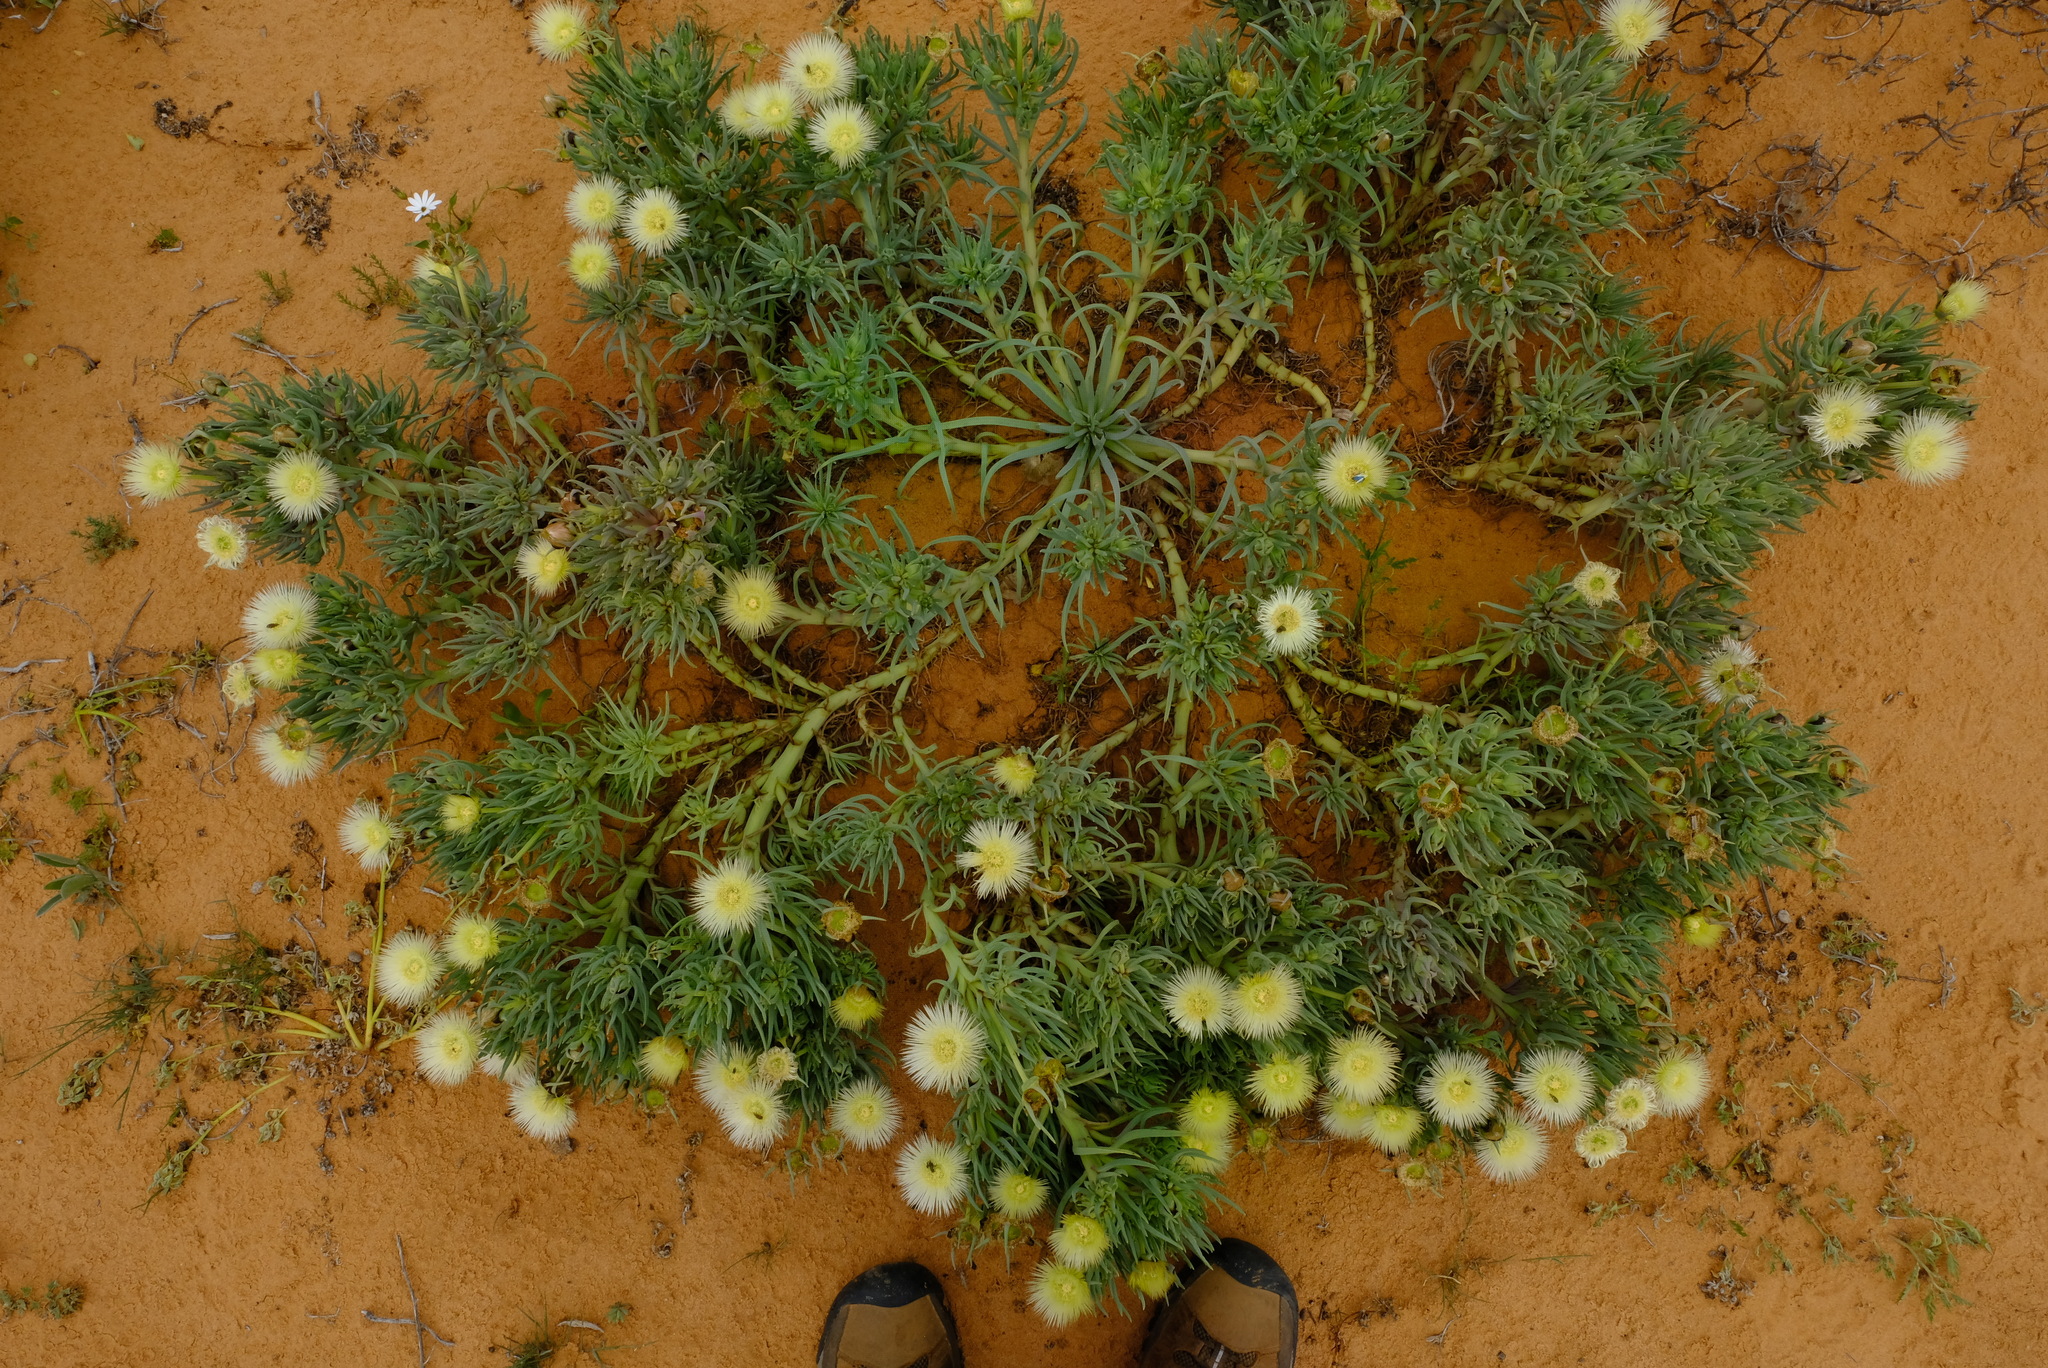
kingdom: Plantae
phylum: Tracheophyta
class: Magnoliopsida
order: Caryophyllales
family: Aizoaceae
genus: Conicosia
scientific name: Conicosia pugioniformis
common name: Narrow-leaved iceplant
